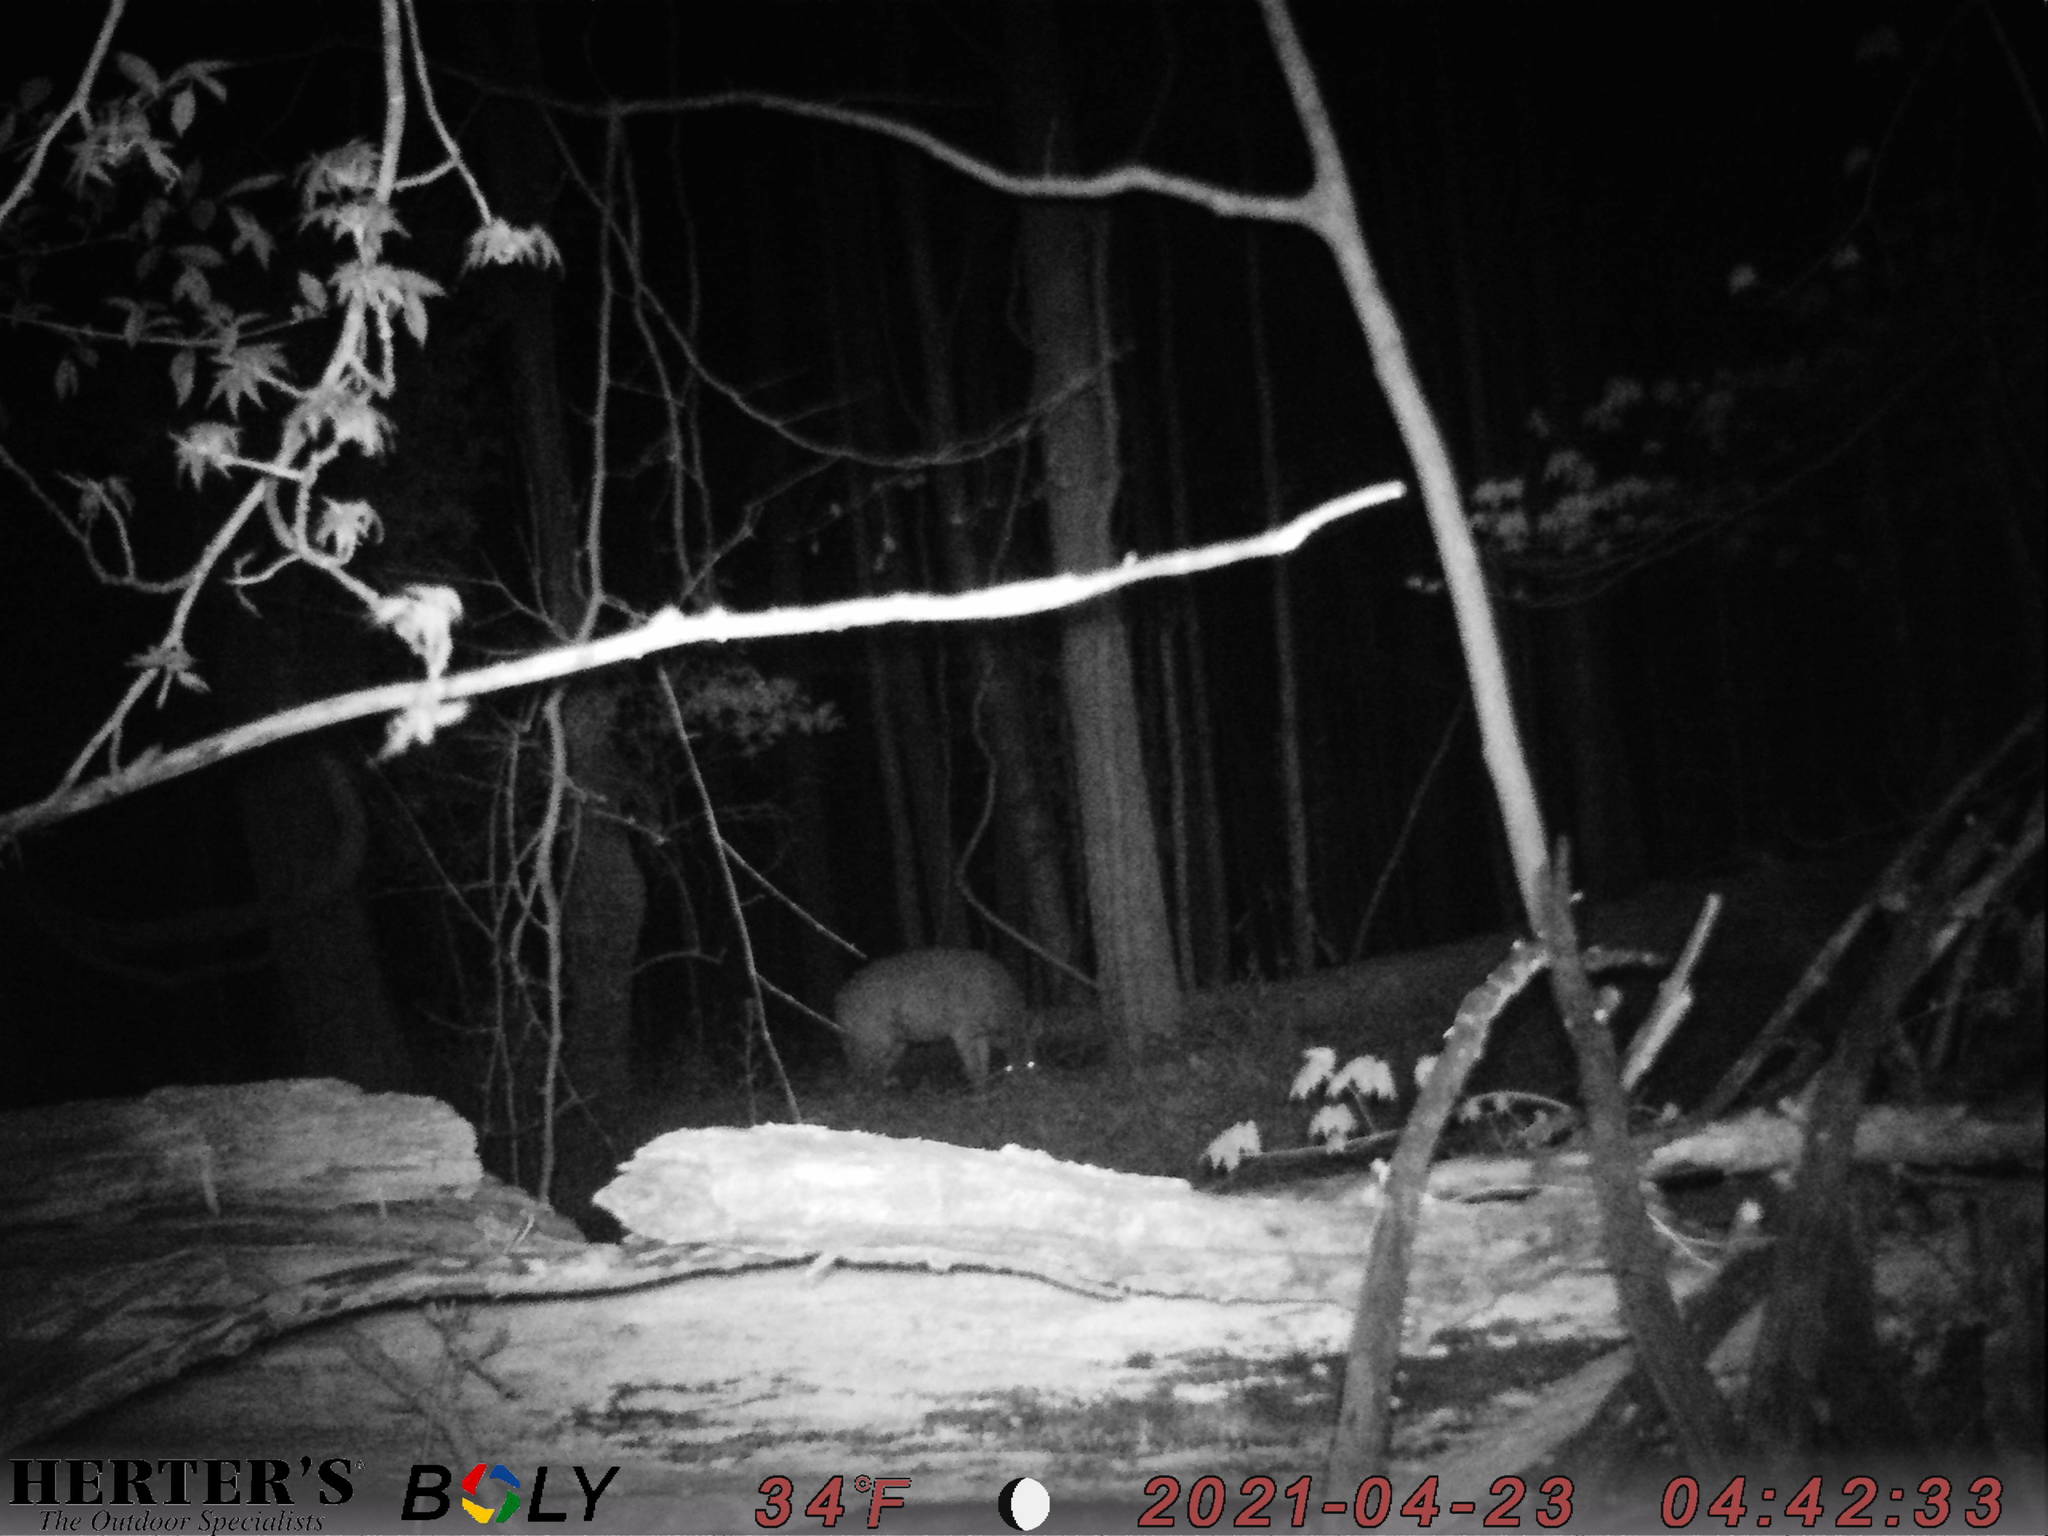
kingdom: Animalia
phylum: Chordata
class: Mammalia
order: Artiodactyla
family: Cervidae
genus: Odocoileus
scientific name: Odocoileus virginianus
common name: White-tailed deer
